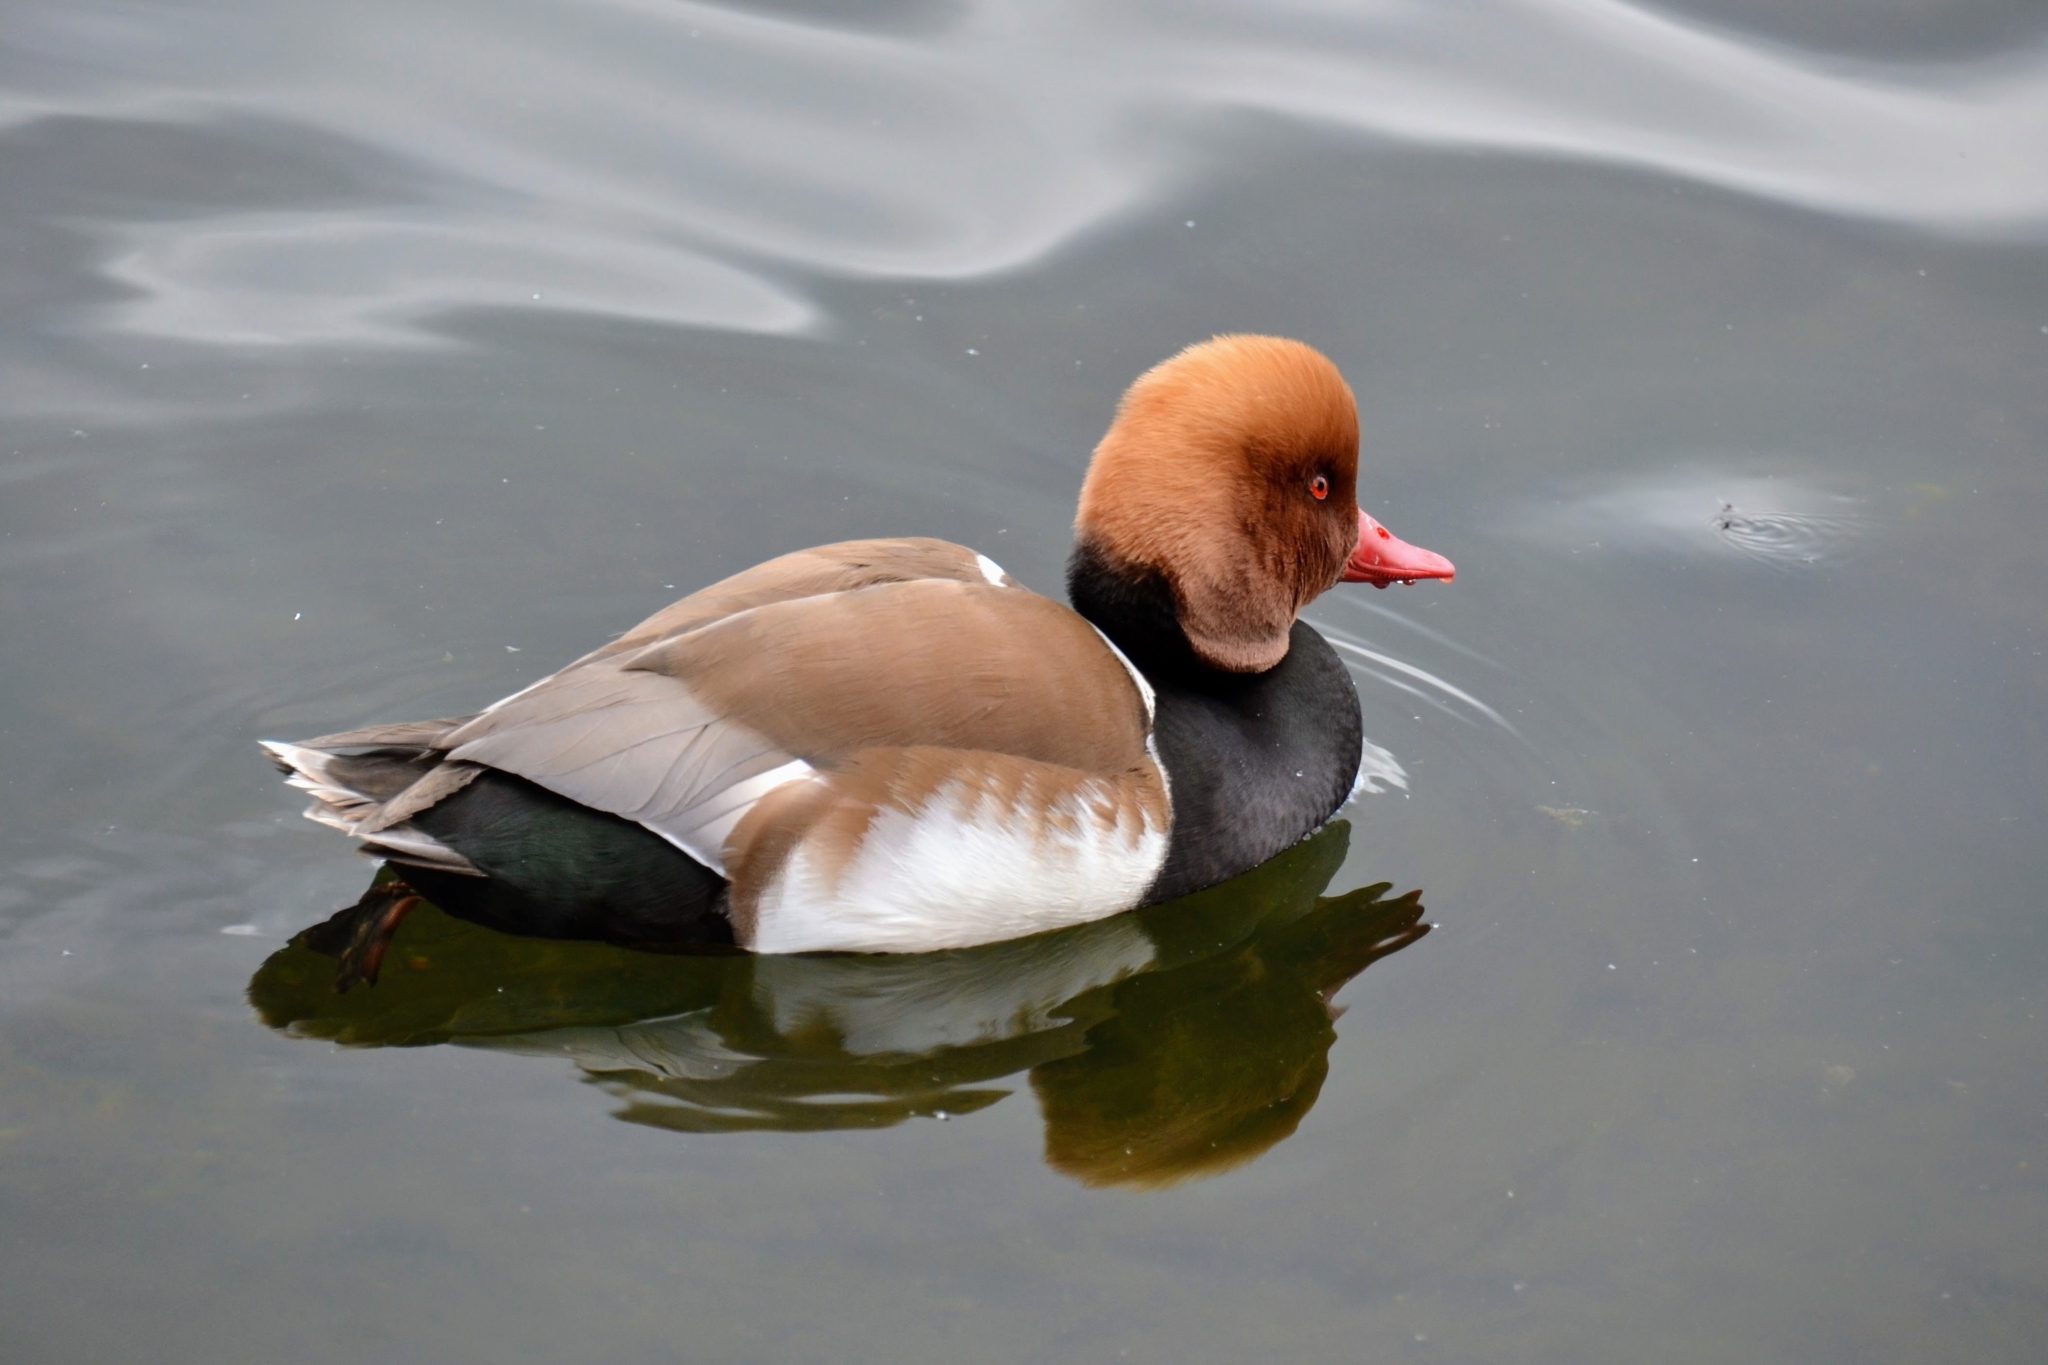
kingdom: Animalia
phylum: Chordata
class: Aves
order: Anseriformes
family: Anatidae
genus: Netta
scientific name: Netta rufina
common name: Red-crested pochard
